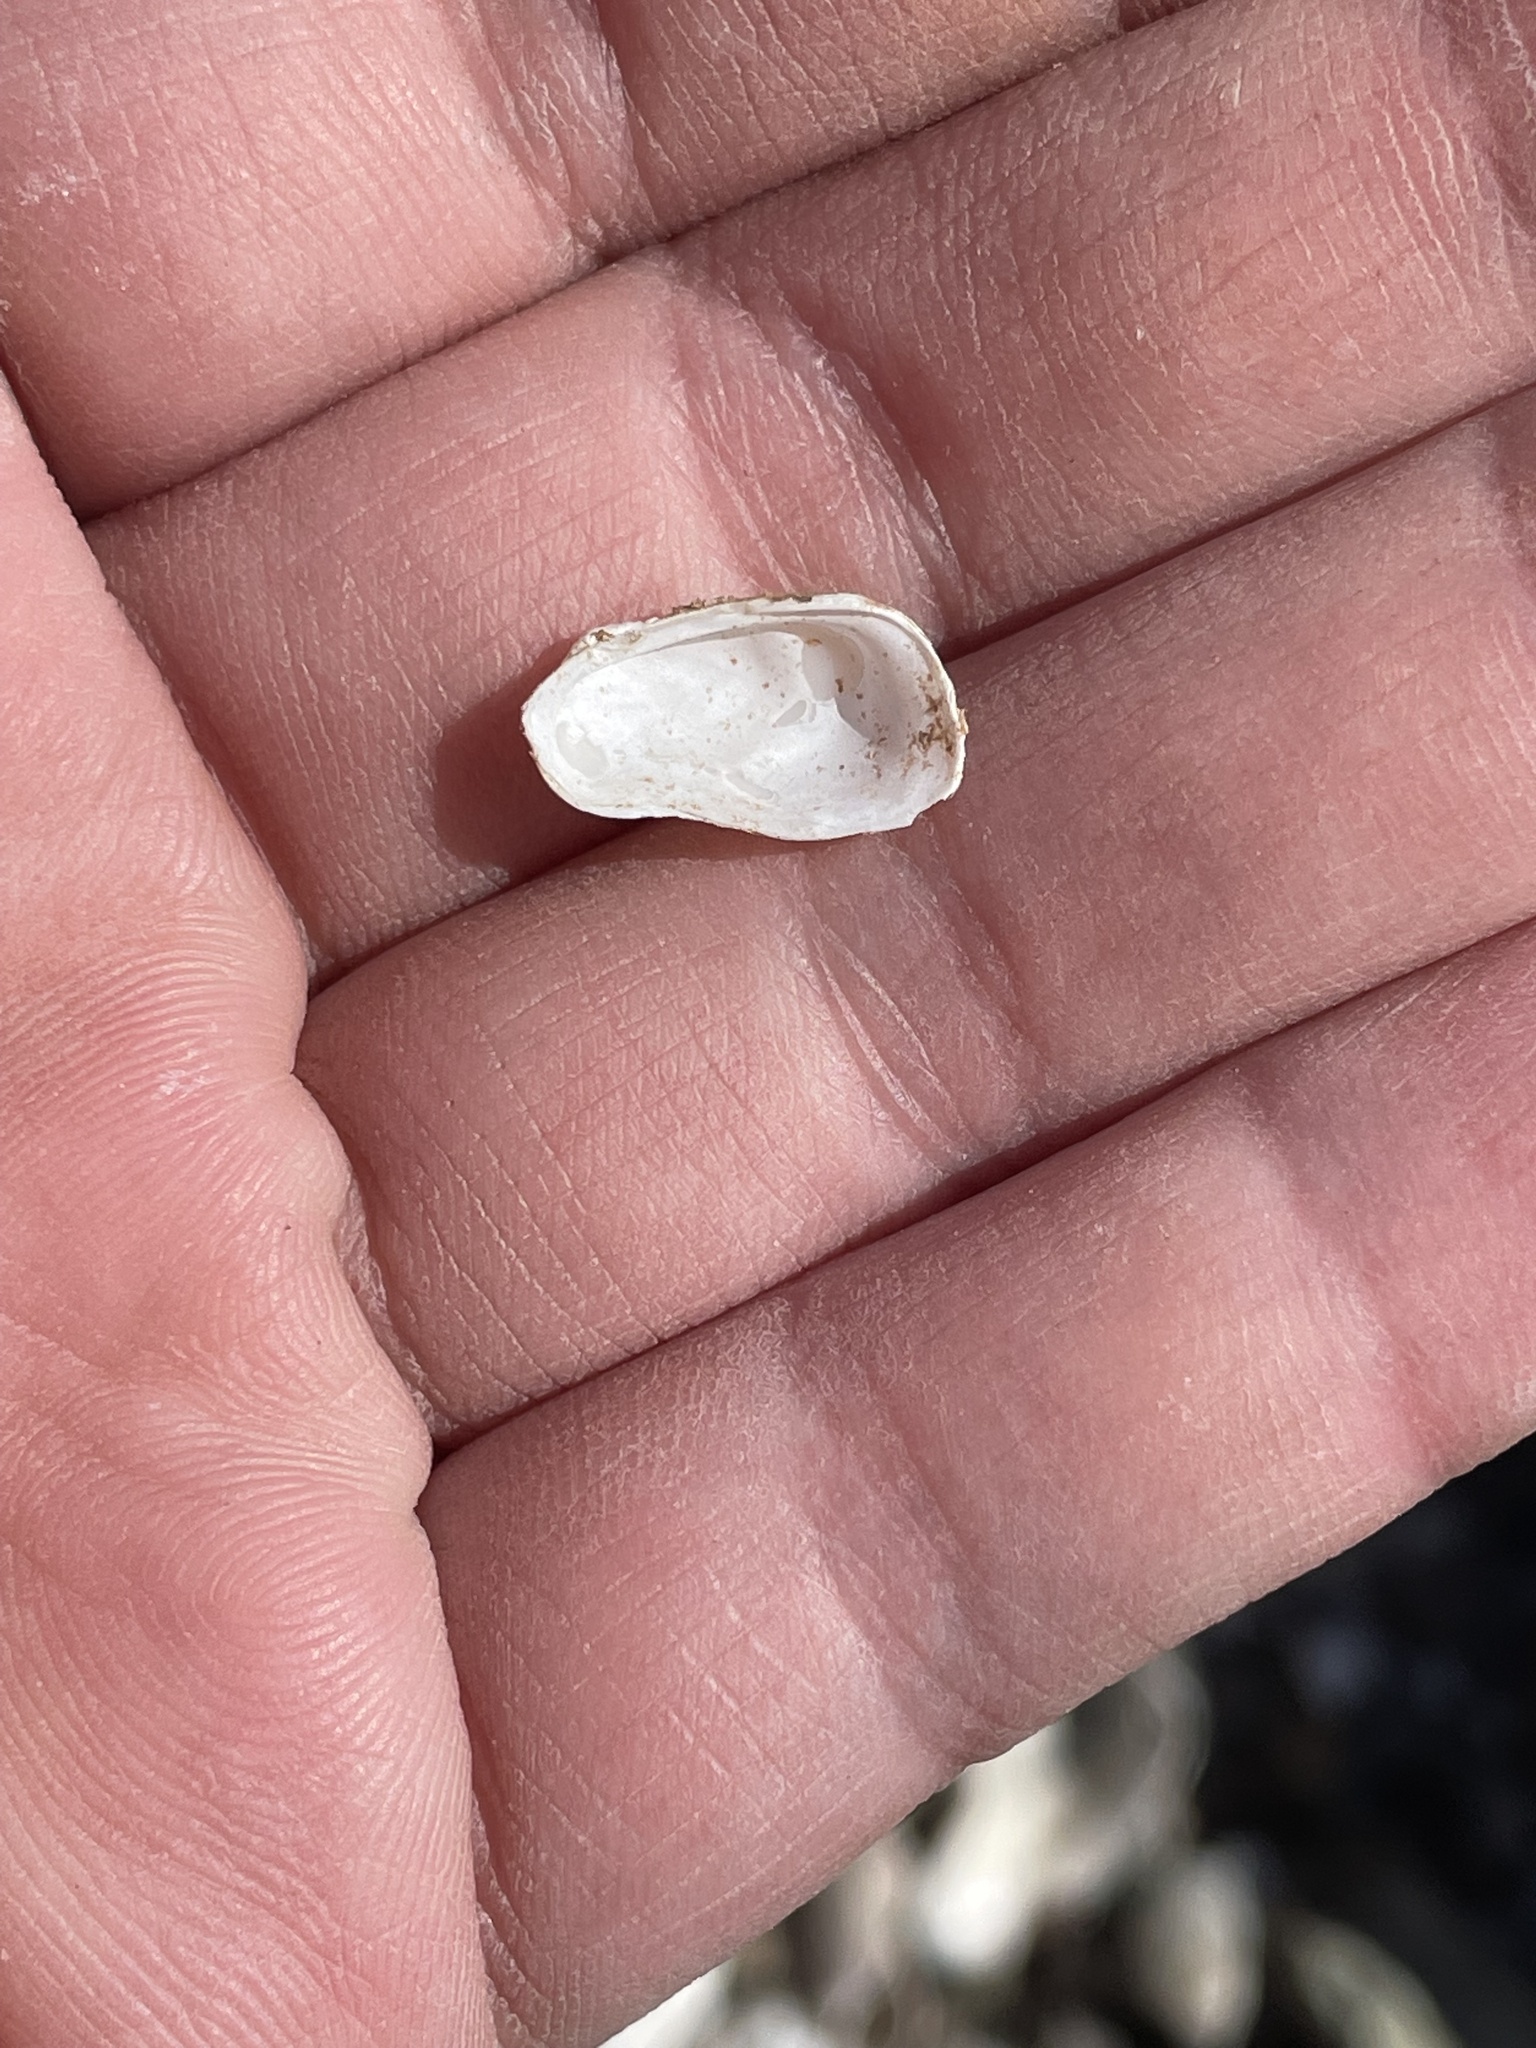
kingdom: Animalia
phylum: Mollusca
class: Bivalvia
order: Adapedonta
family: Hiatellidae
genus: Hiatella
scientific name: Hiatella arctica
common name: Arctic hiatella
